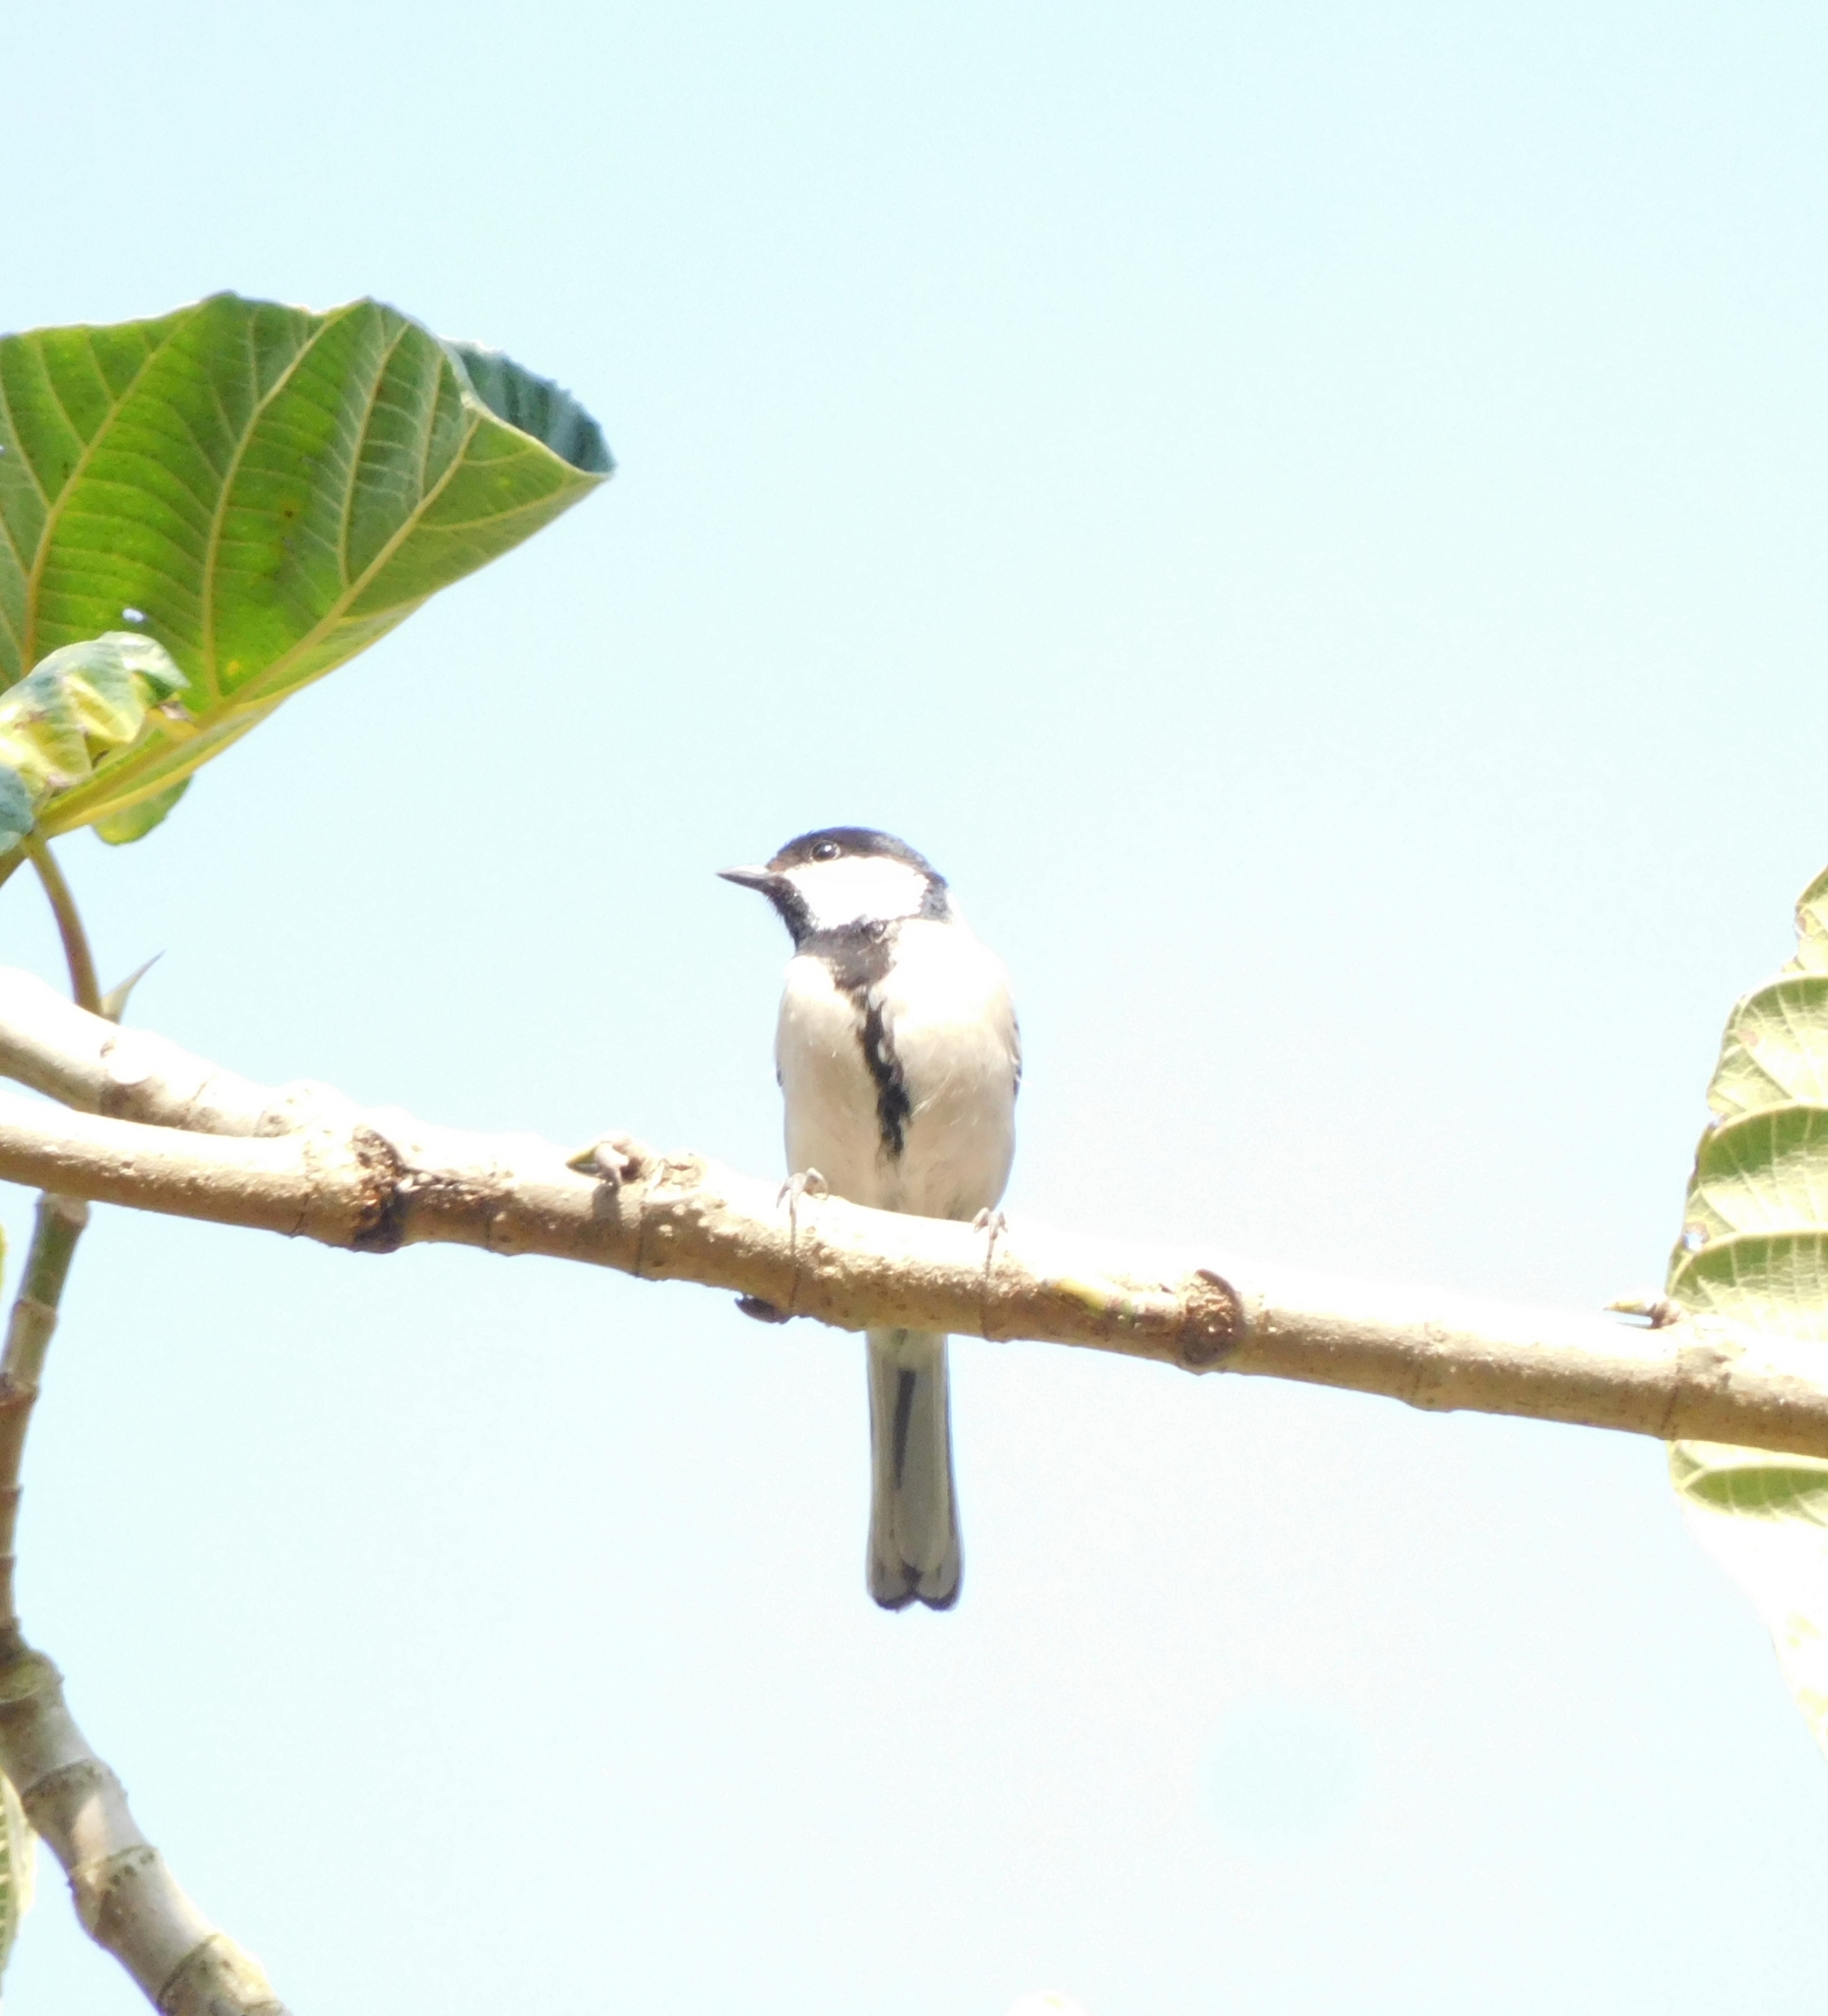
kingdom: Animalia
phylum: Chordata
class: Aves
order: Passeriformes
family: Paridae
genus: Parus
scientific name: Parus cinereus
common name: Cinereous tit
